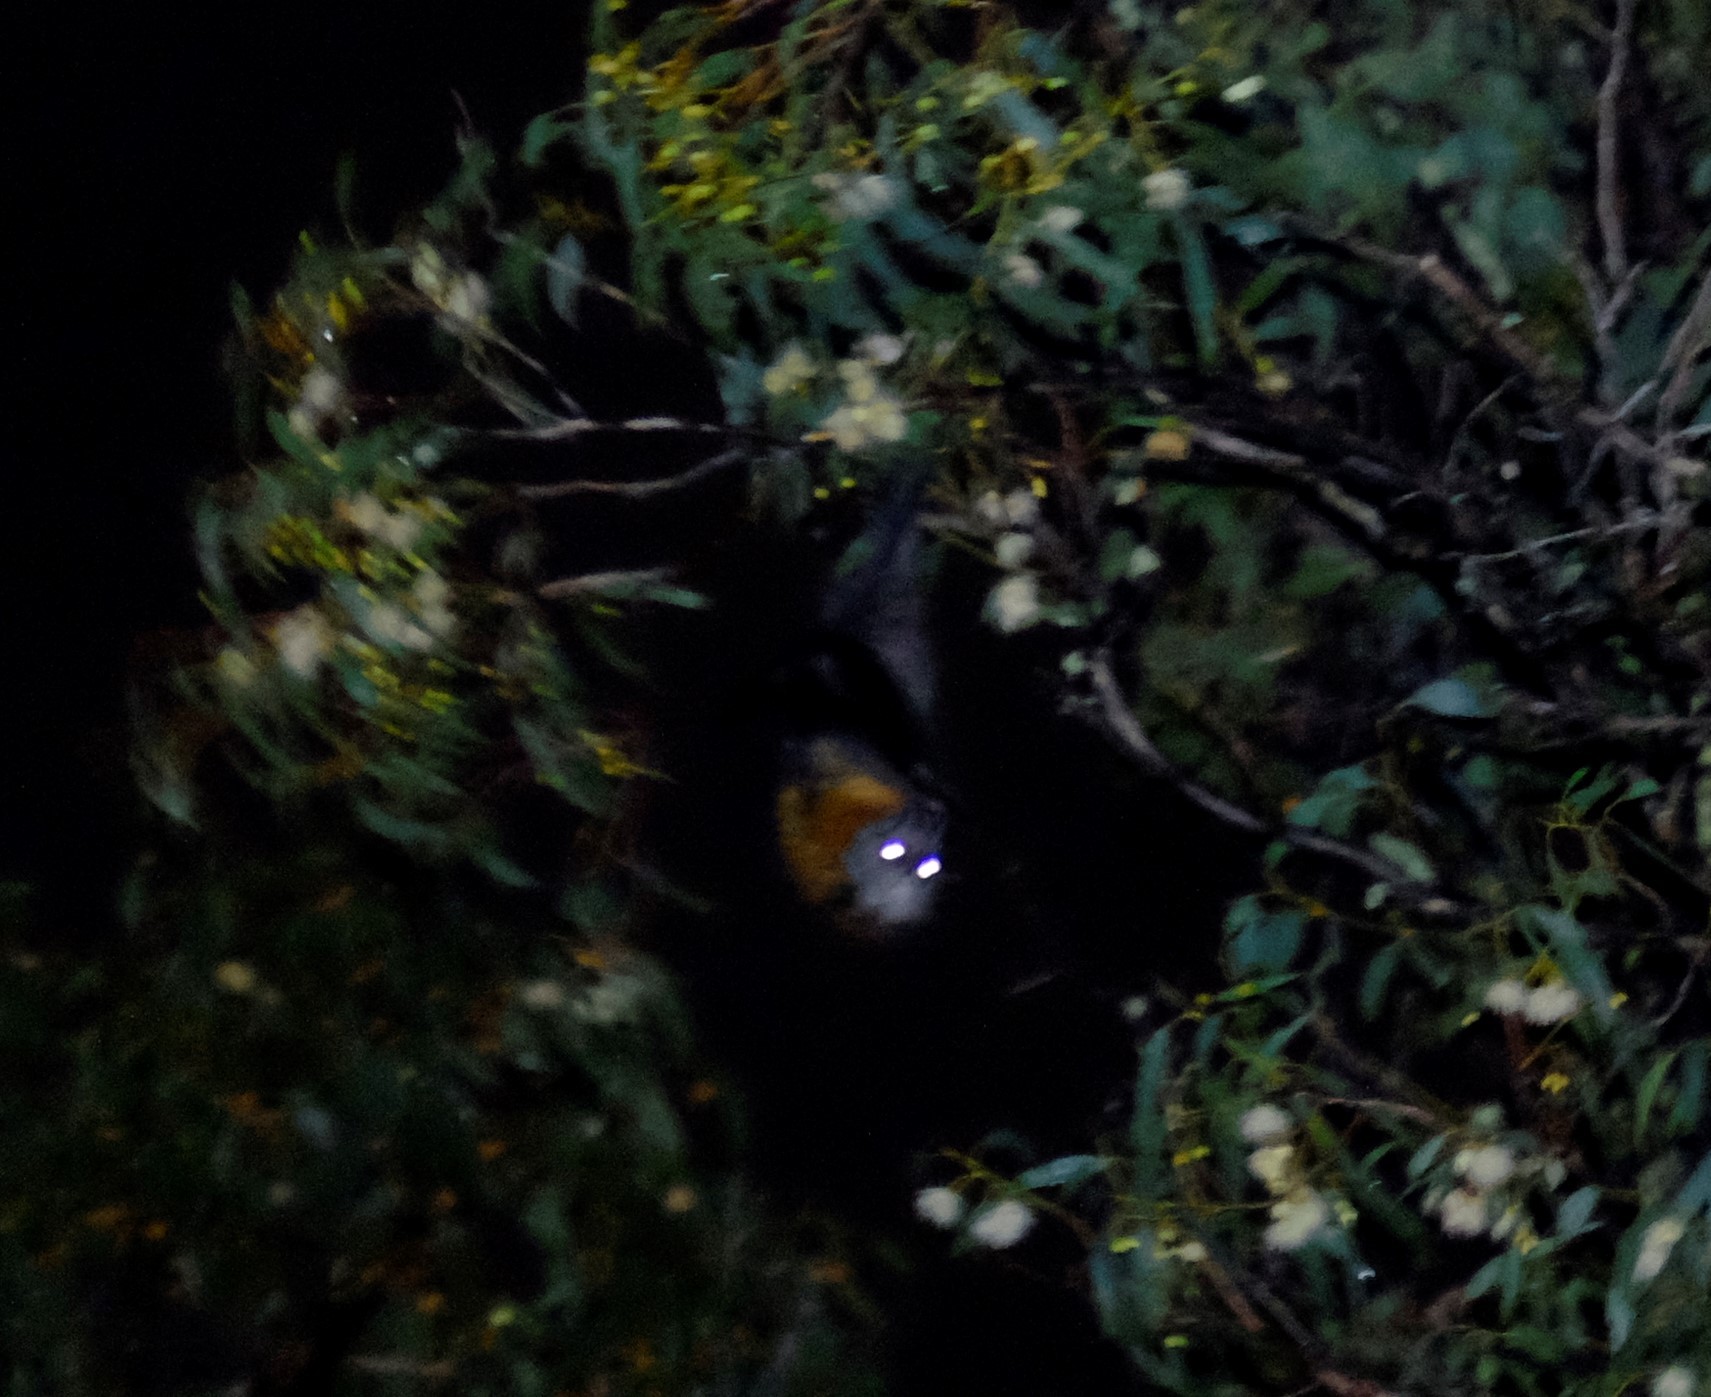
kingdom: Animalia
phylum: Chordata
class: Mammalia
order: Chiroptera
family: Pteropodidae
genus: Pteropus
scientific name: Pteropus poliocephalus
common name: Gray-headed flying fox
